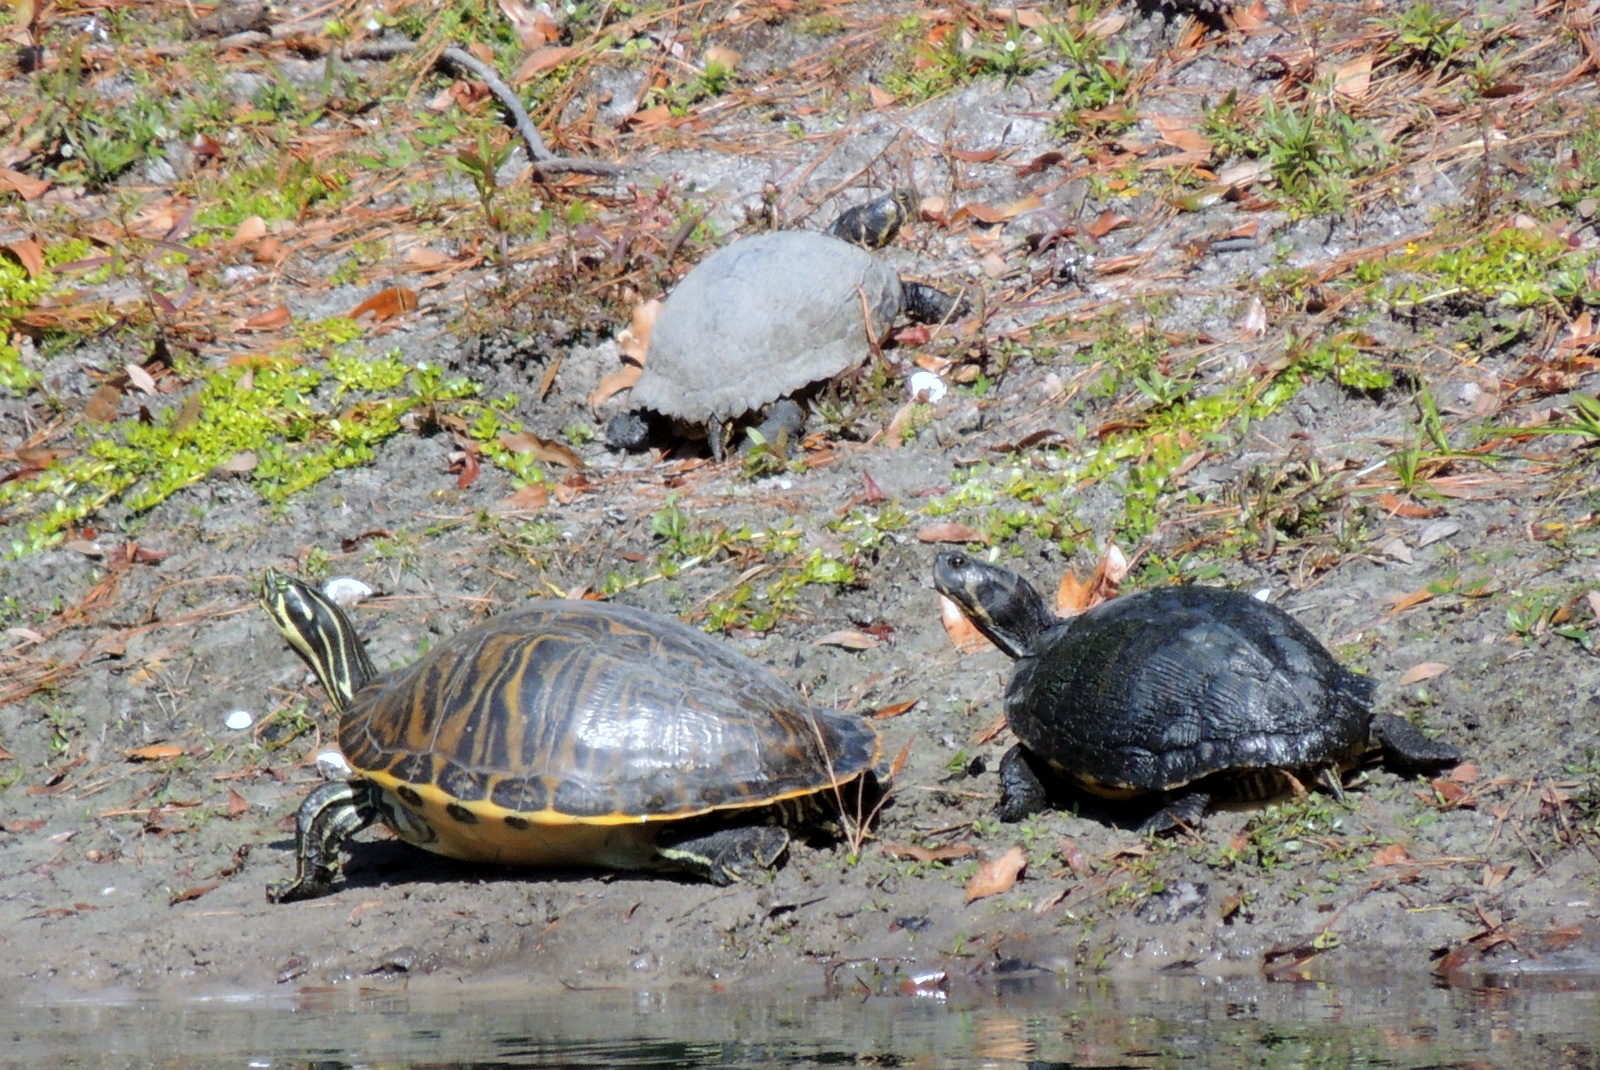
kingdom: Animalia
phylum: Chordata
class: Testudines
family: Emydidae
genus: Pseudemys
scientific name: Pseudemys peninsularis
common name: Peninsula cooter
